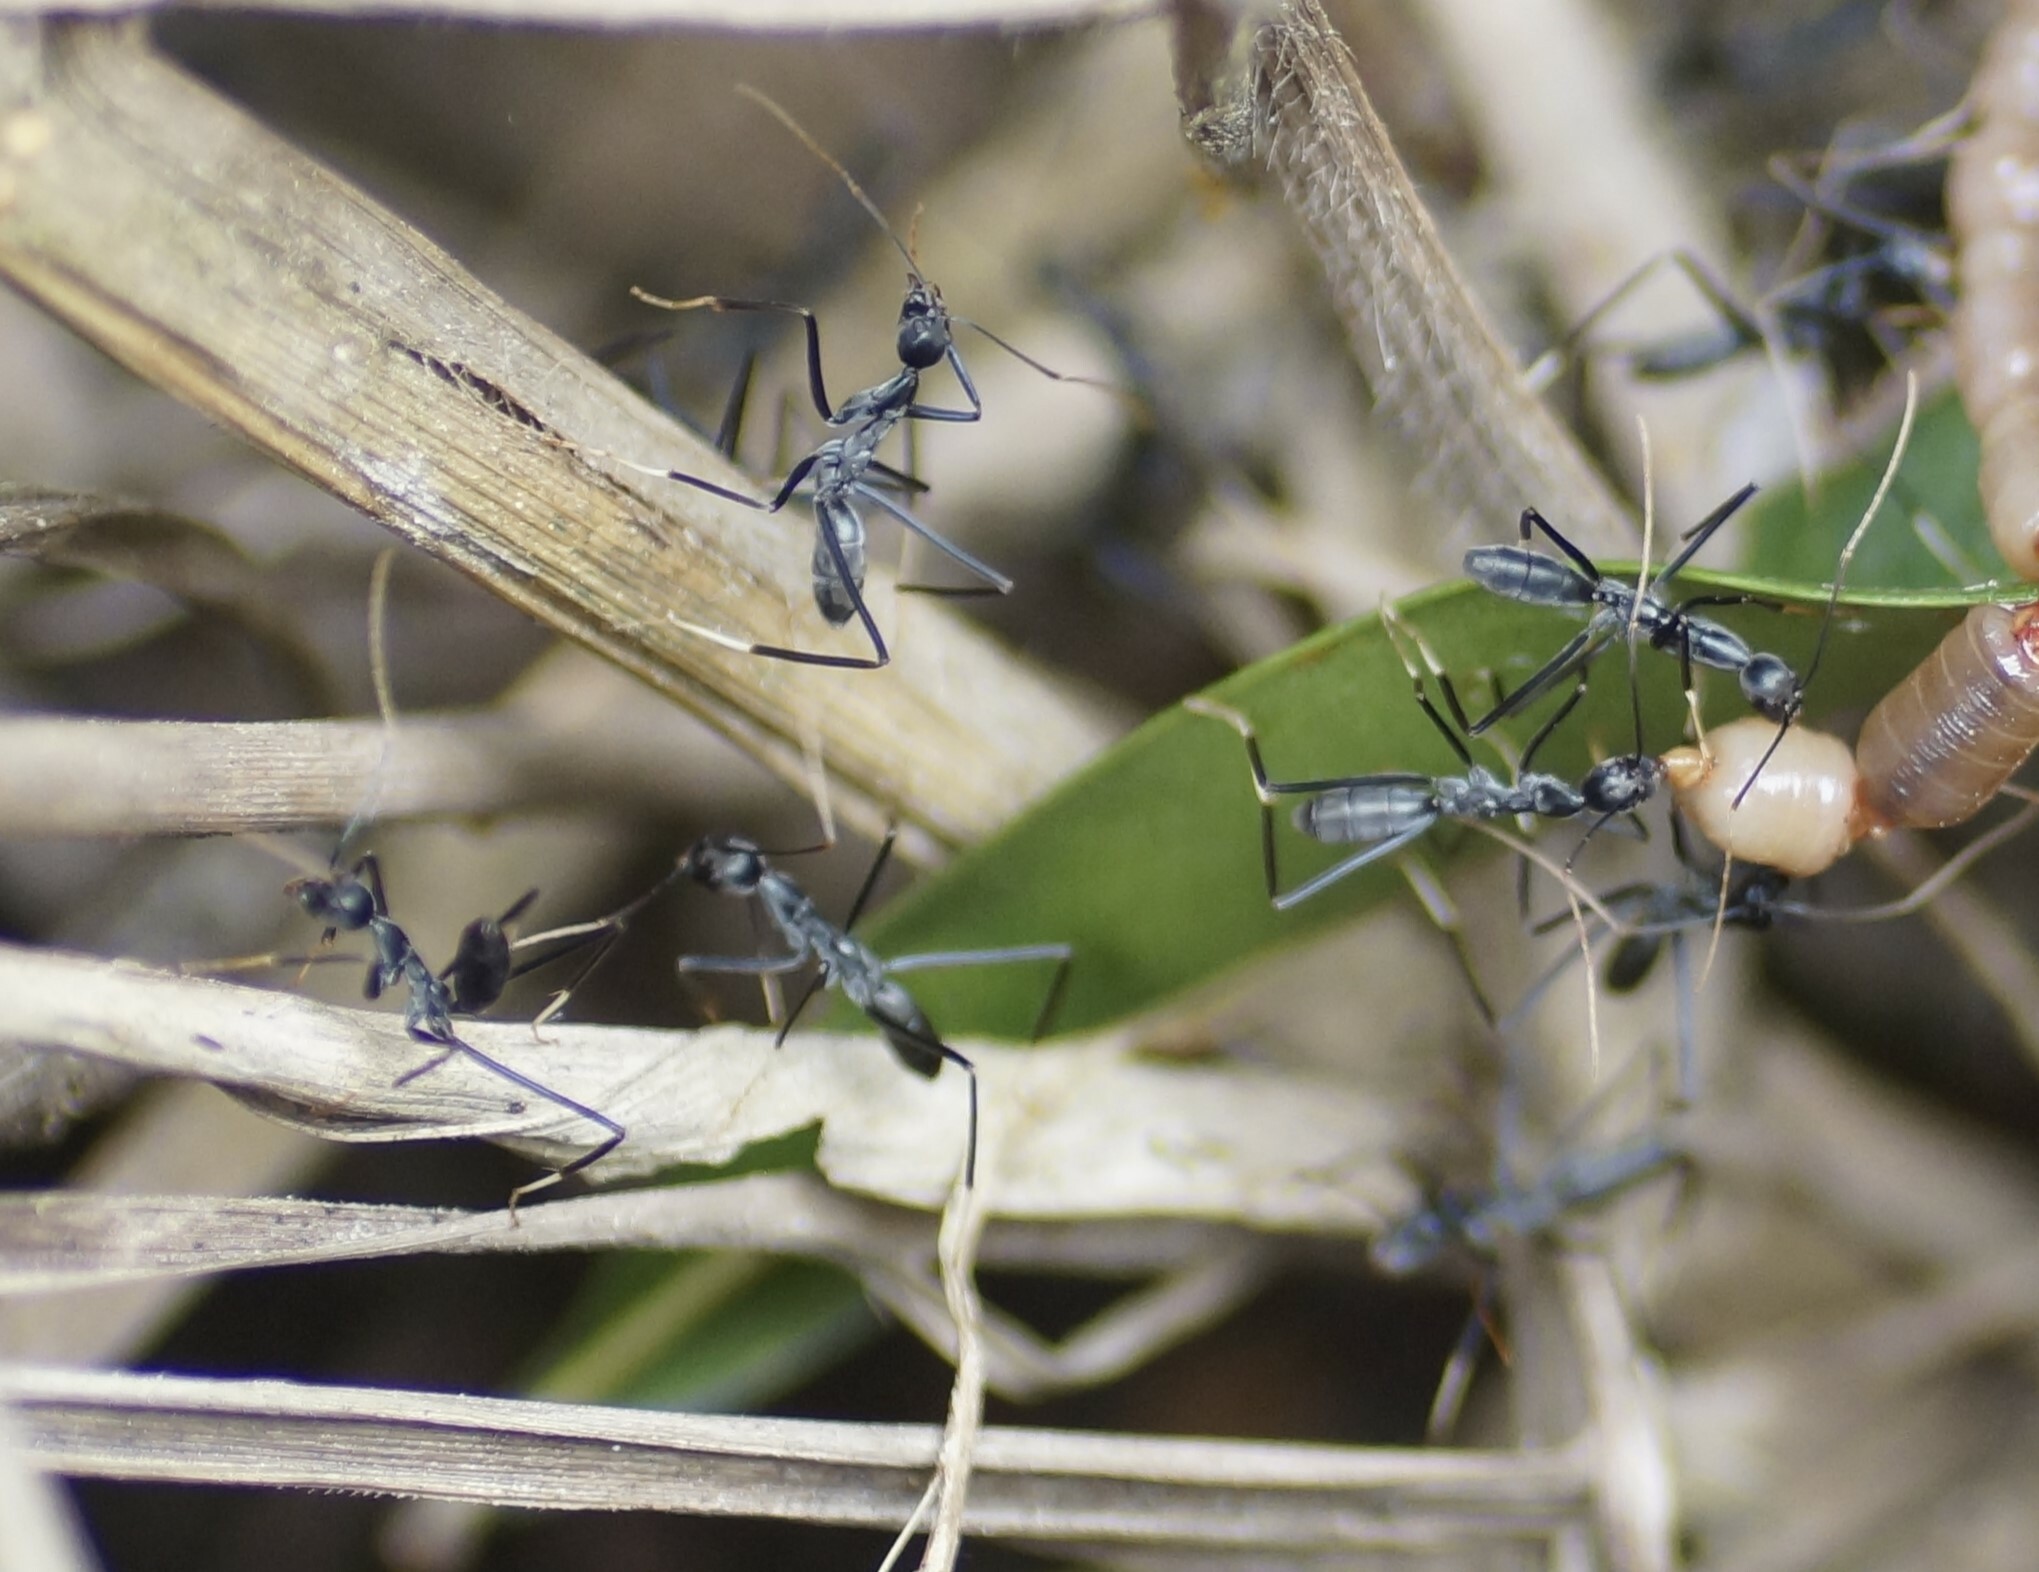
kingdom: Animalia
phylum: Arthropoda
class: Insecta
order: Hymenoptera
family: Formicidae
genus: Leptomyrmex
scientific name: Leptomyrmex unicolor
